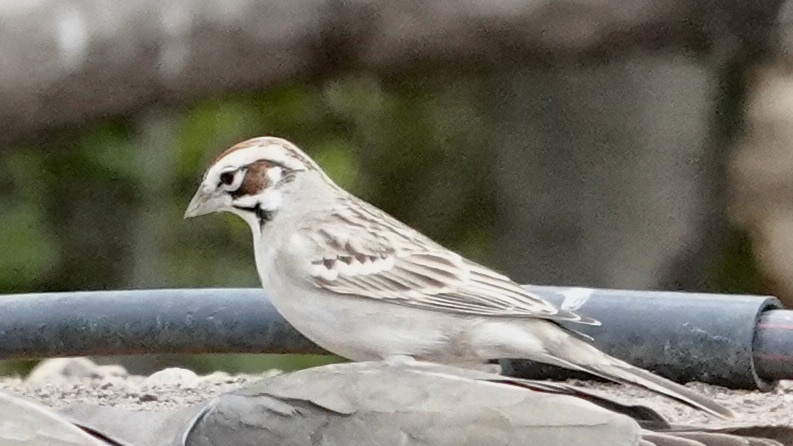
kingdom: Animalia
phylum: Chordata
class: Aves
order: Passeriformes
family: Passerellidae
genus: Chondestes
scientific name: Chondestes grammacus
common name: Lark sparrow
